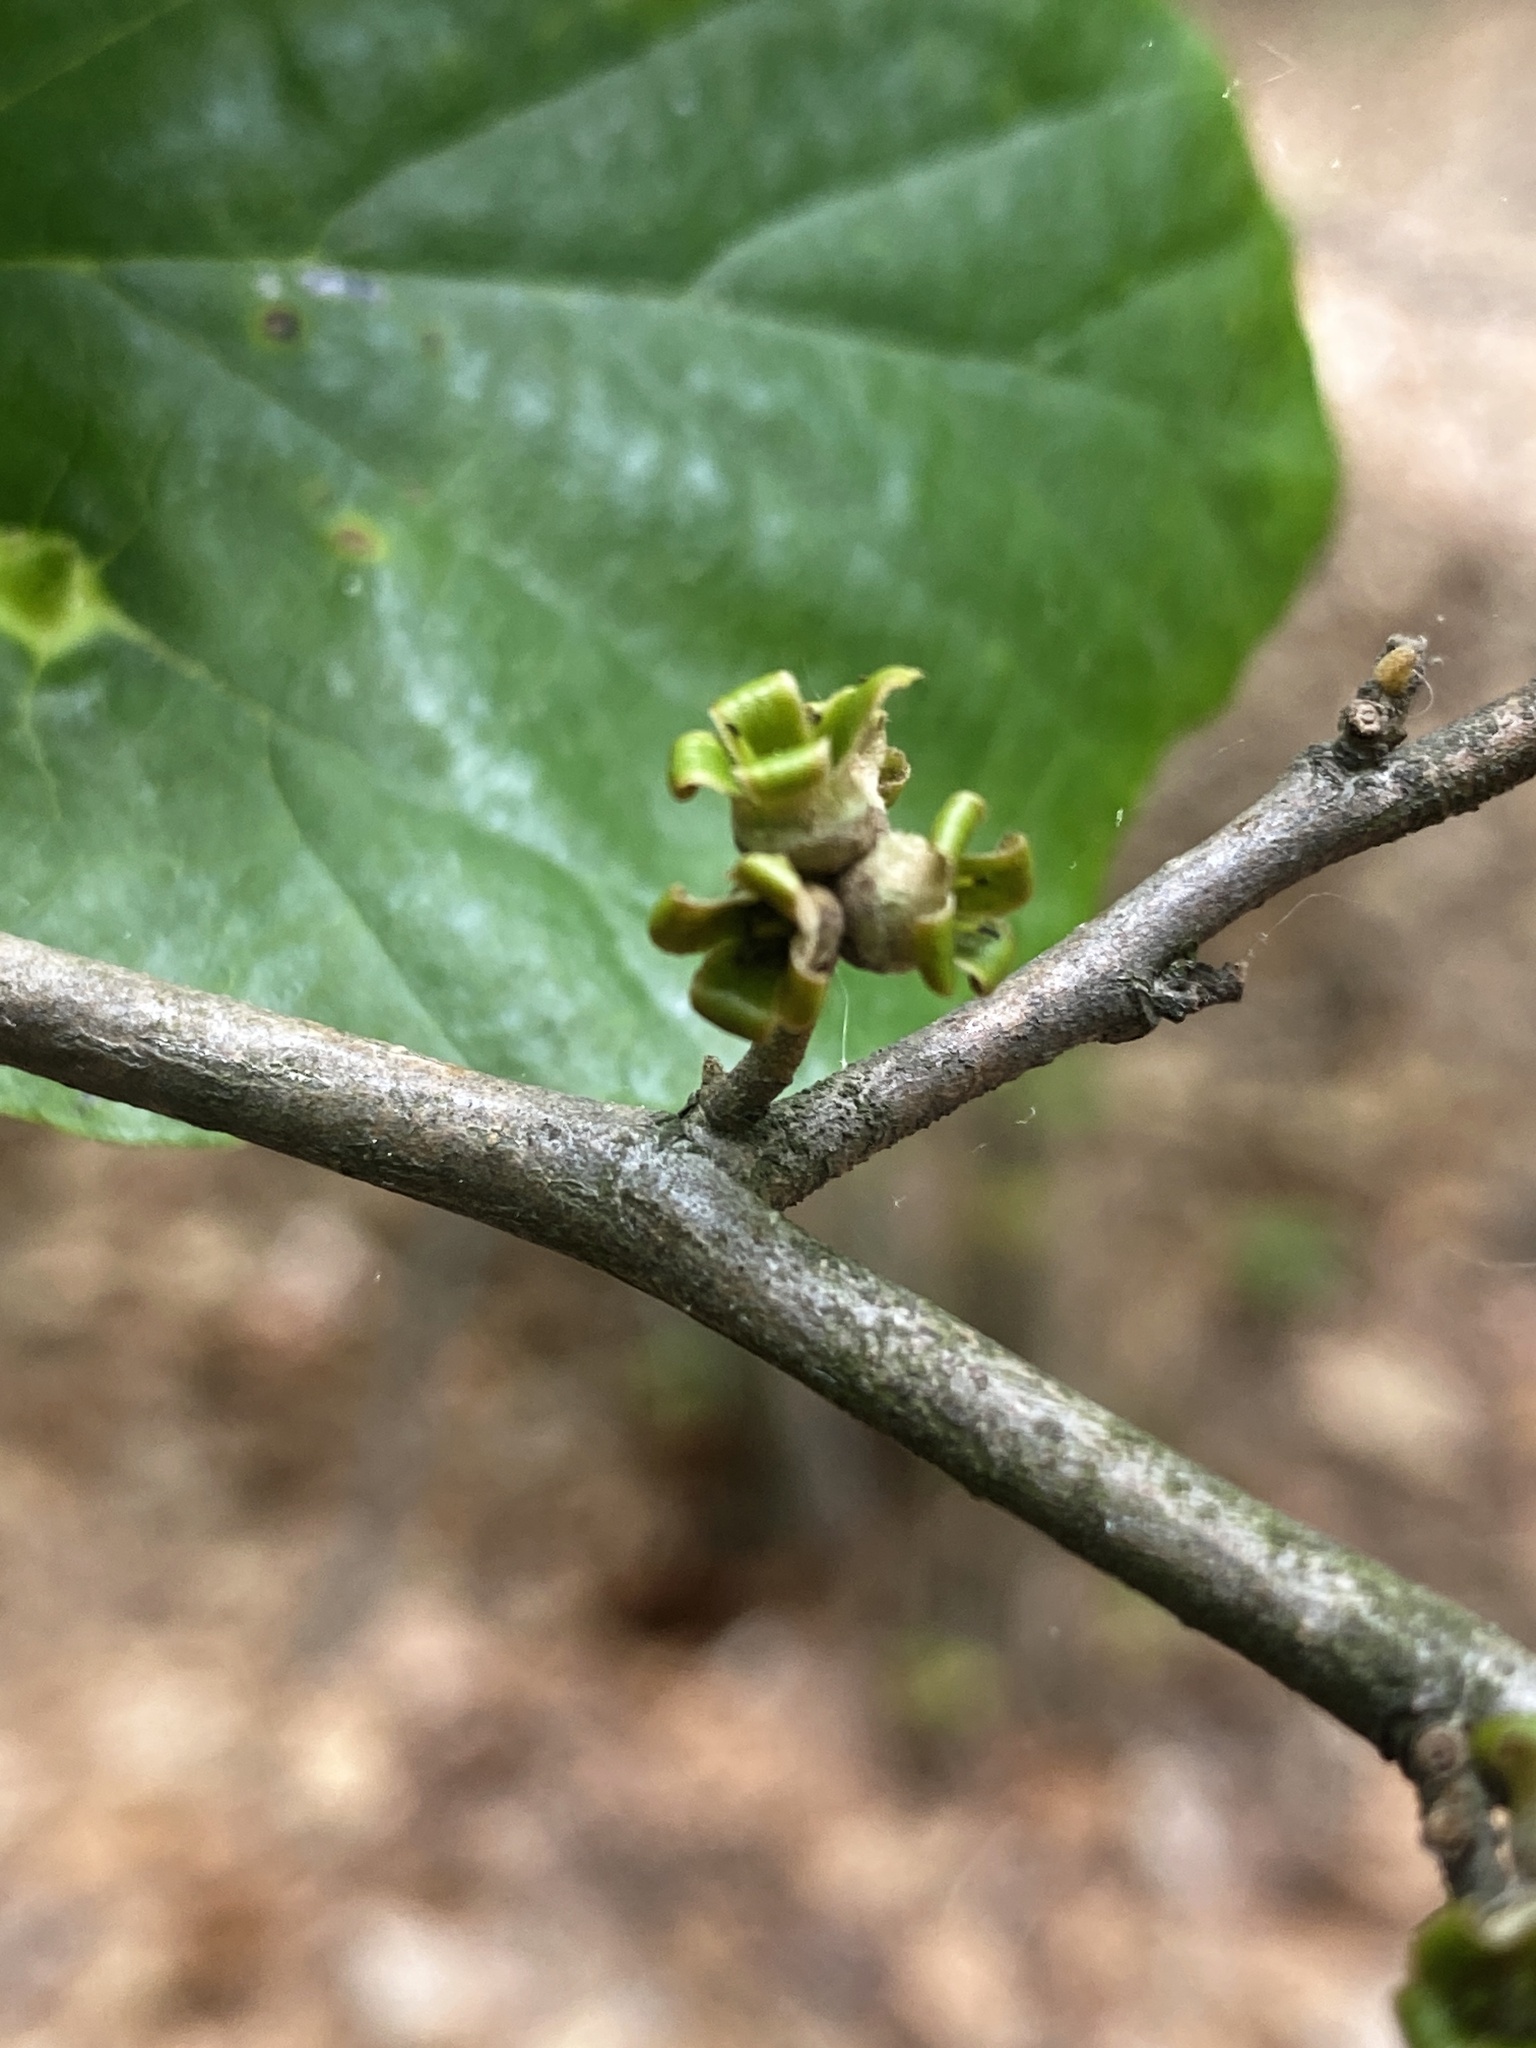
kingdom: Plantae
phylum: Tracheophyta
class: Magnoliopsida
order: Saxifragales
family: Hamamelidaceae
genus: Hamamelis
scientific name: Hamamelis virginiana
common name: Witch-hazel
